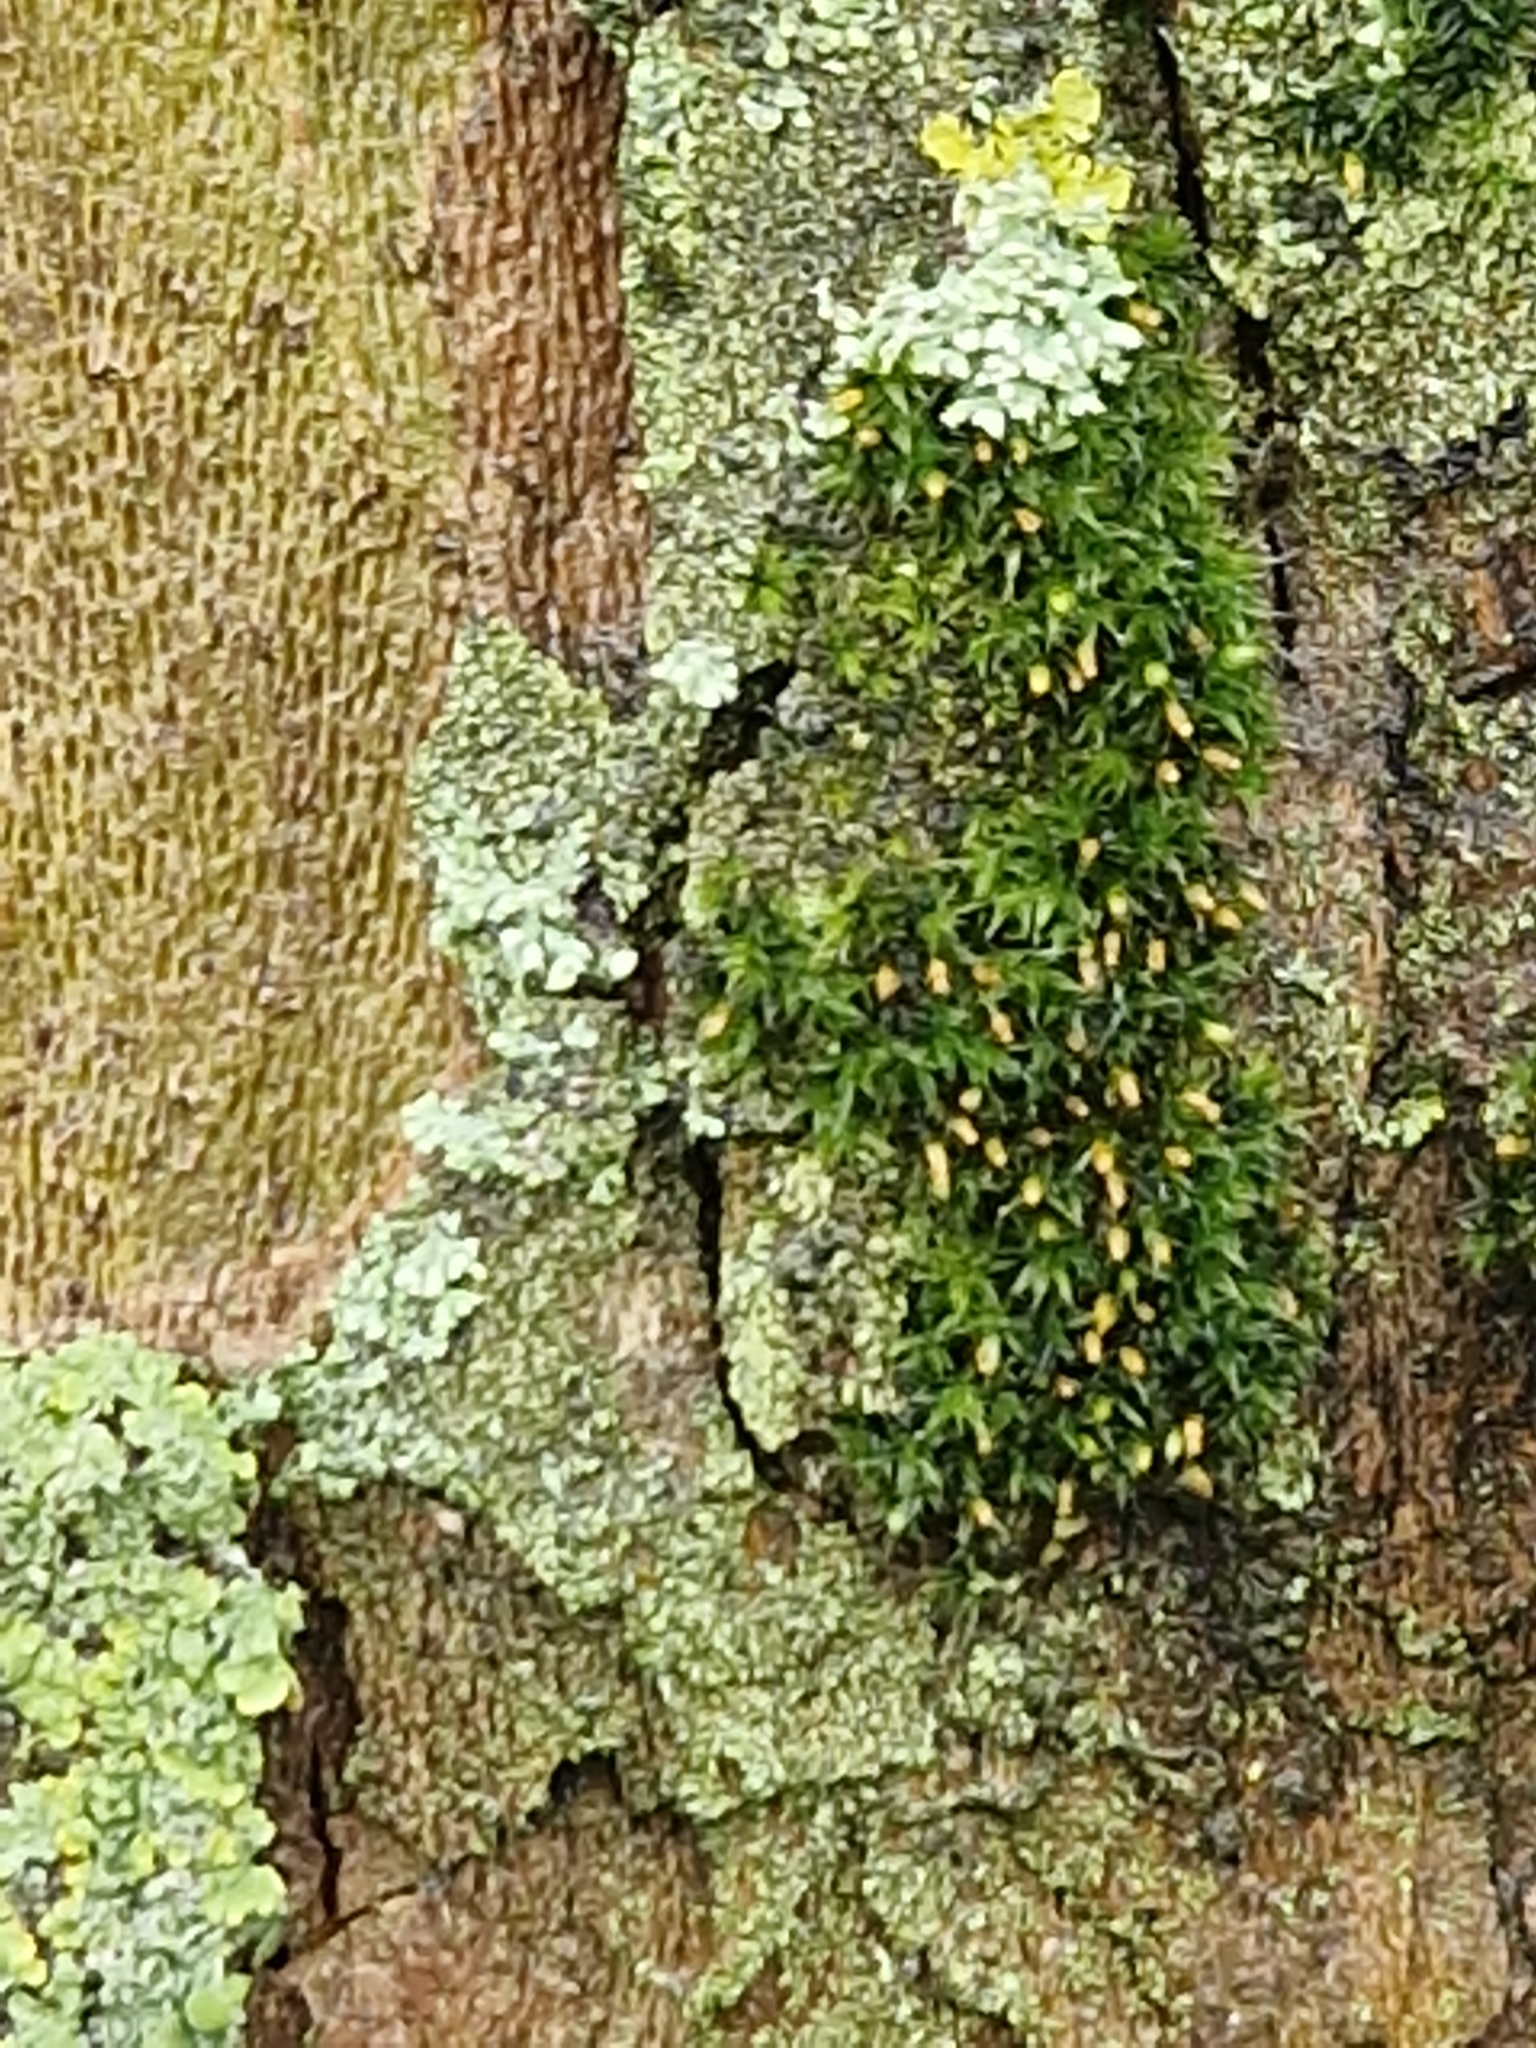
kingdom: Plantae
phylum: Bryophyta
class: Bryopsida
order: Orthotrichales
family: Orthotrichaceae
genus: Orthotrichum
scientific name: Orthotrichum diaphanum
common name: White-tipped bristle-moss
